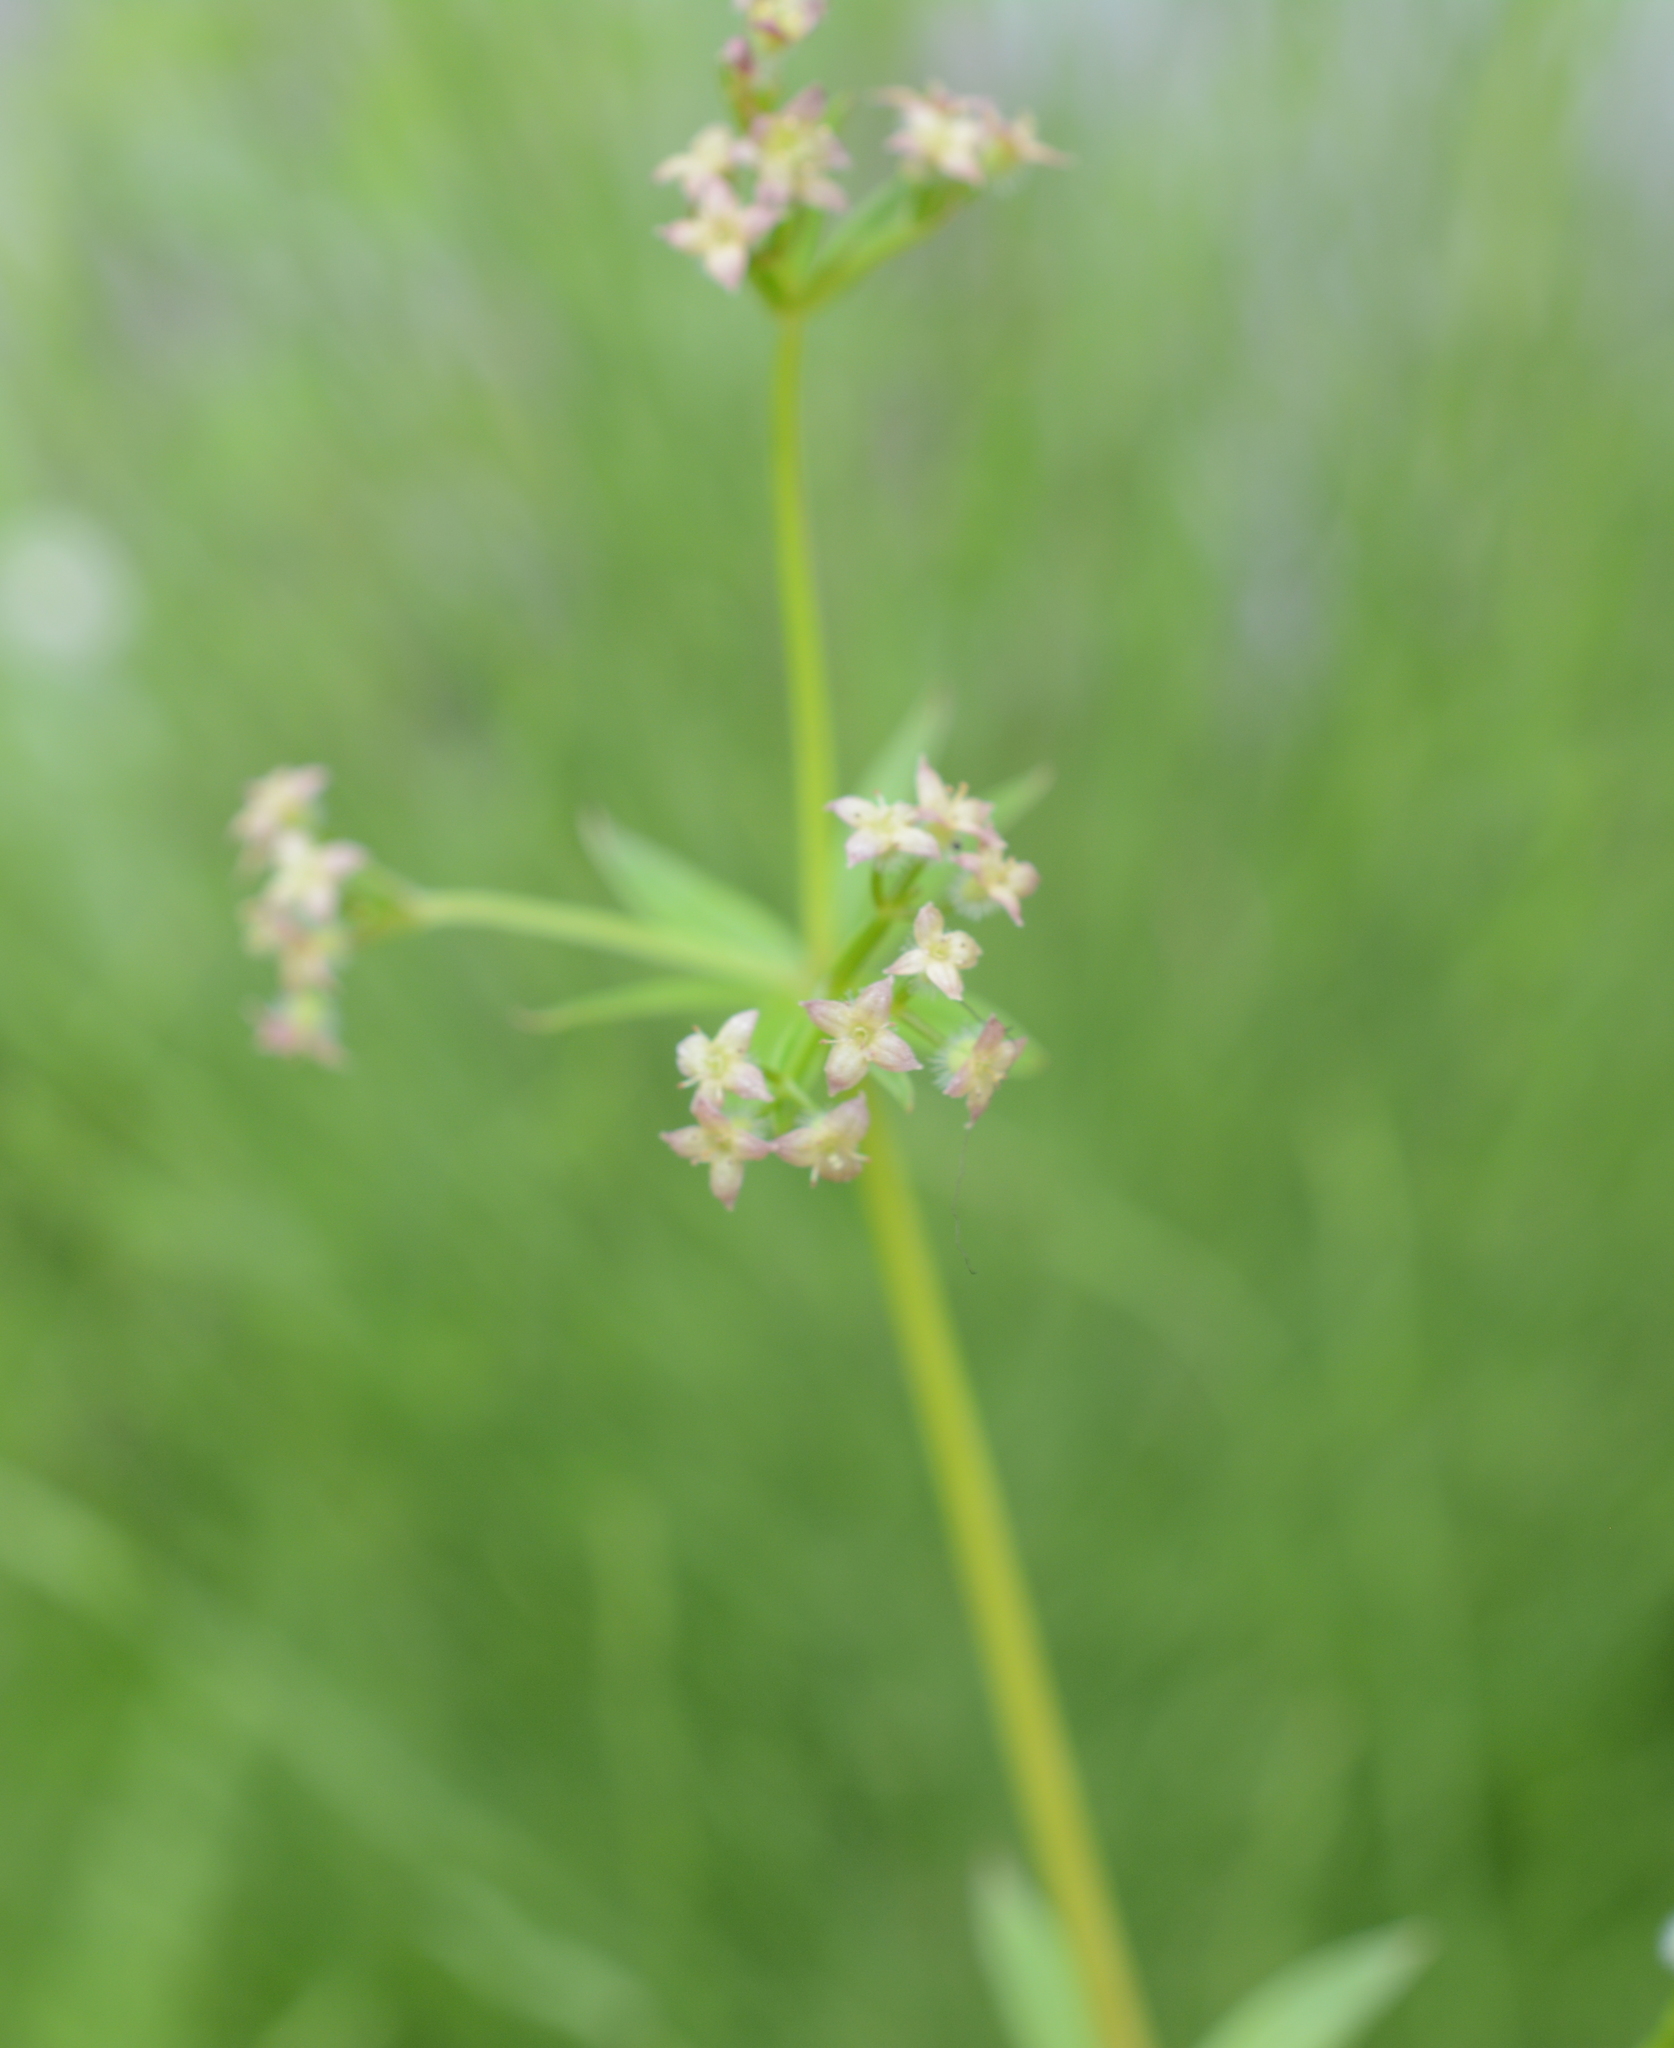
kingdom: Plantae
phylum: Tracheophyta
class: Magnoliopsida
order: Gentianales
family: Rubiaceae
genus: Galium
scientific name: Galium triflorum
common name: Fragrant bedstraw
